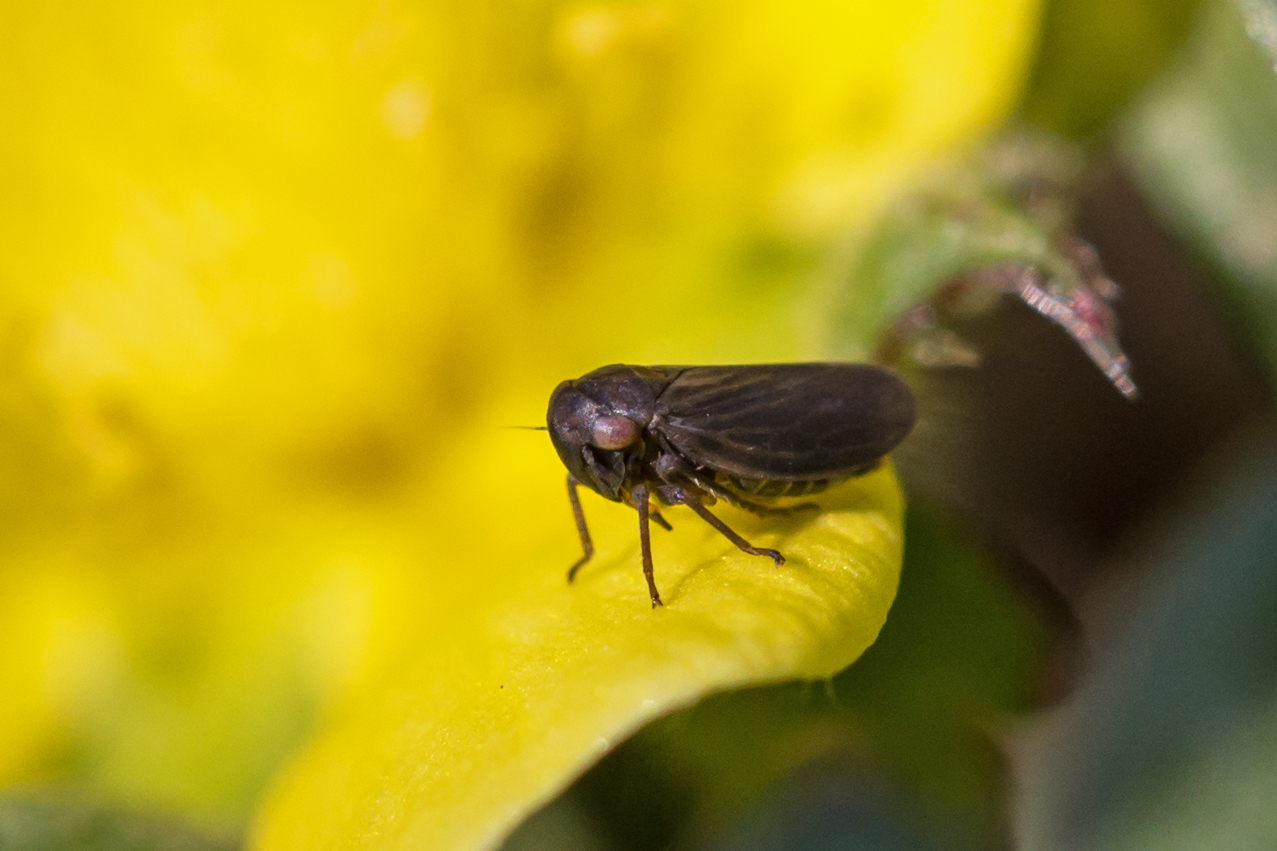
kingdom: Animalia
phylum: Arthropoda
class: Insecta
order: Hemiptera
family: Cicadellidae
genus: Agallia
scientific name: Agallia
